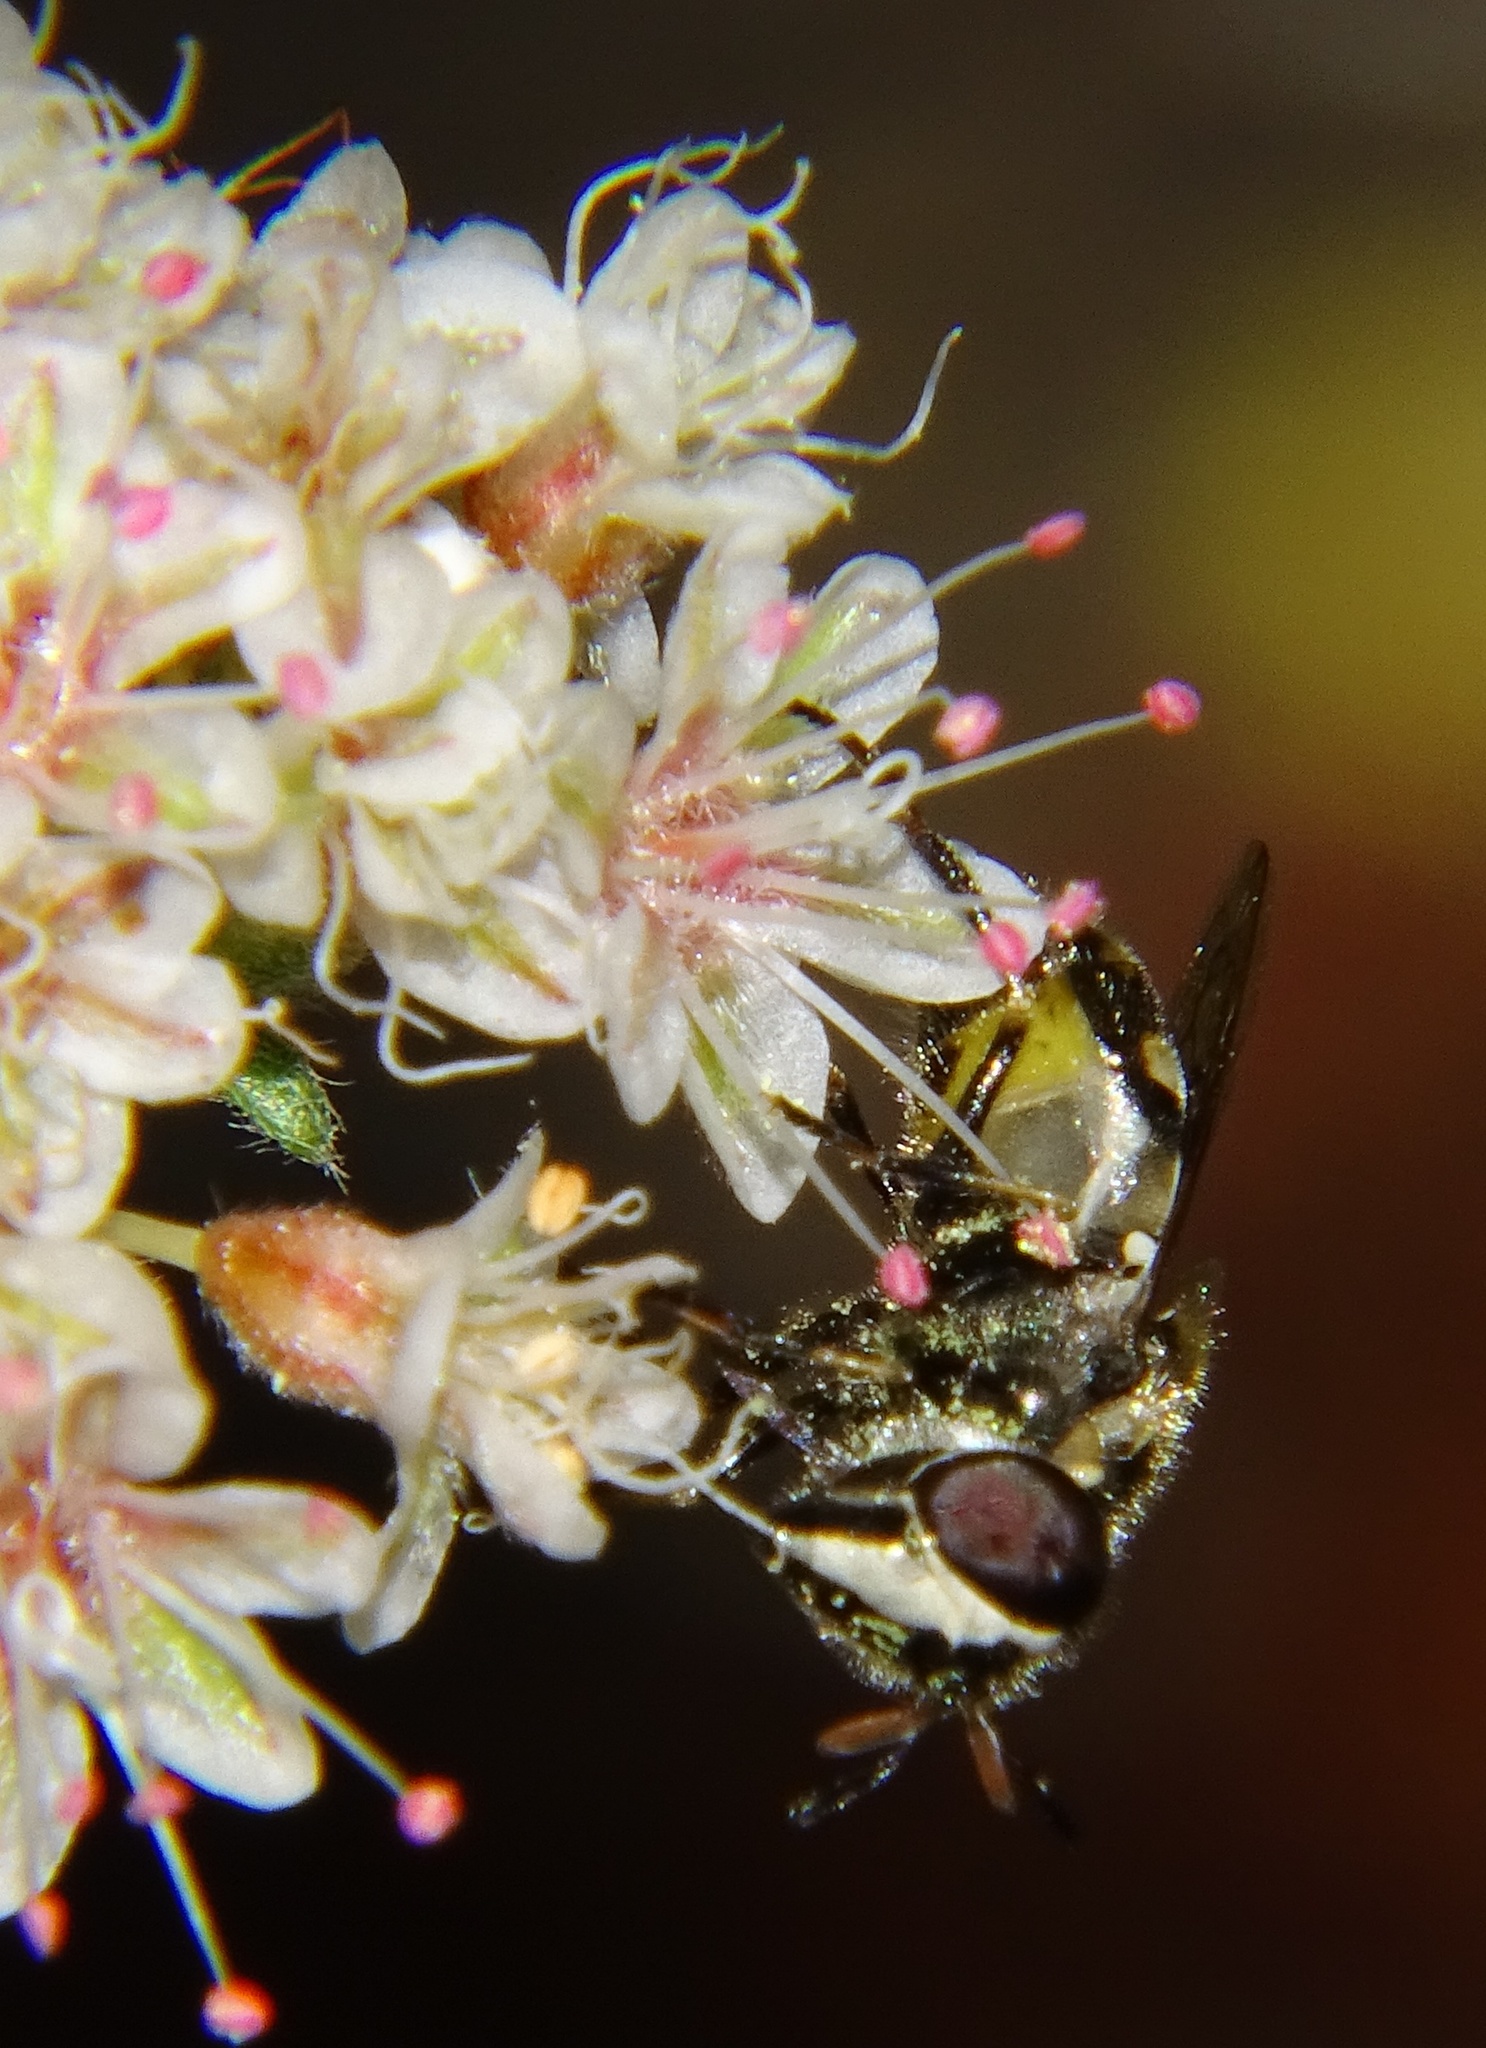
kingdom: Animalia
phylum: Arthropoda
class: Insecta
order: Diptera
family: Syrphidae
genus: Copestylum
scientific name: Copestylum marginatum
